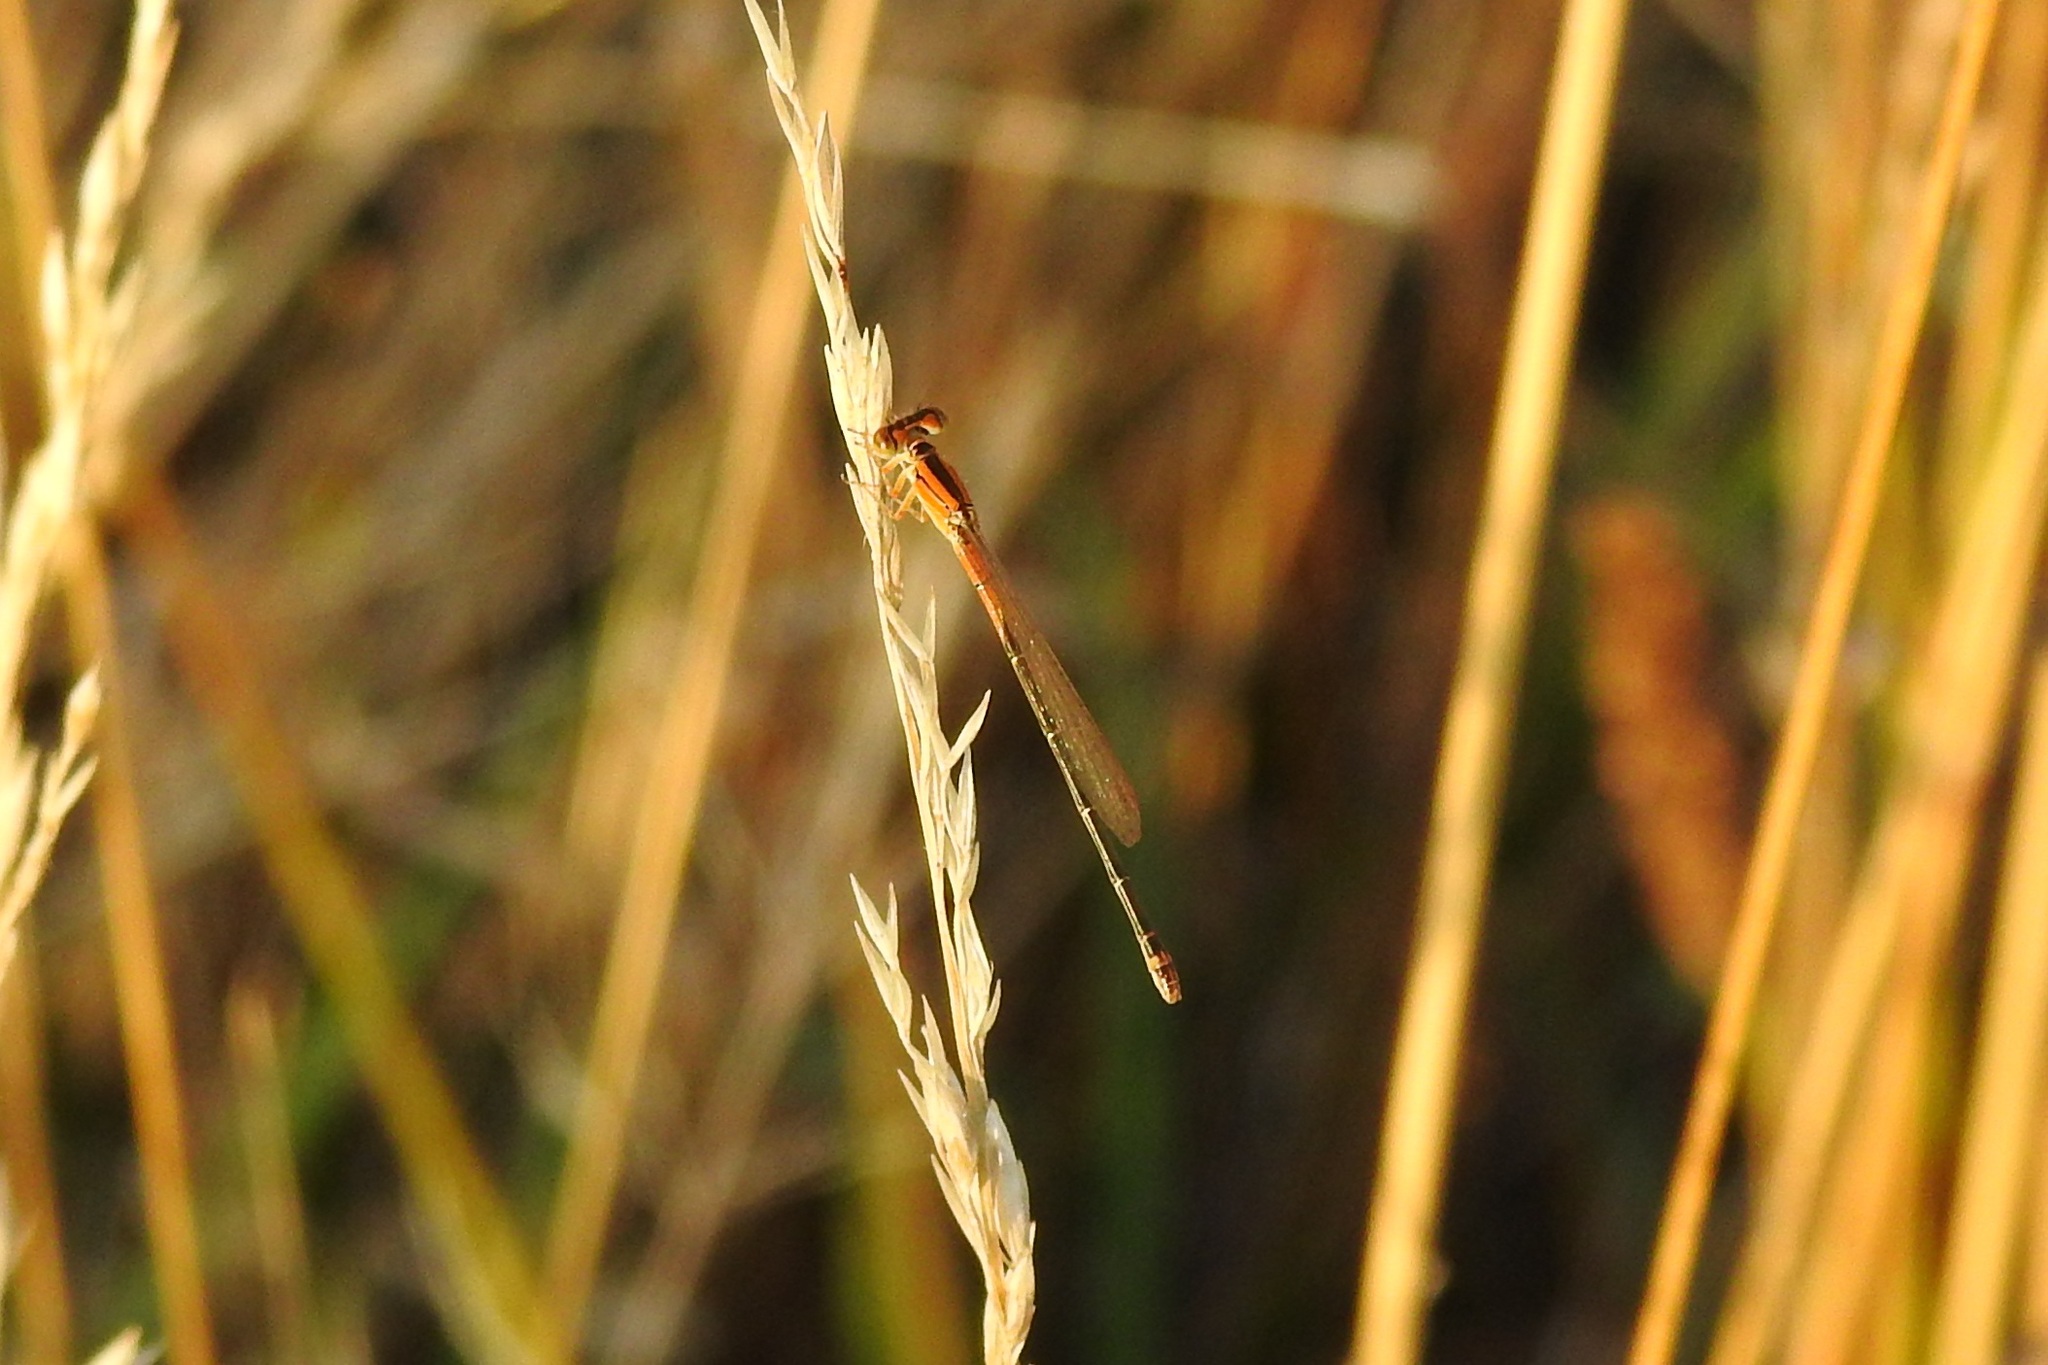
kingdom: Animalia
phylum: Arthropoda
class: Insecta
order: Odonata
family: Coenagrionidae
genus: Ischnura
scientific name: Ischnura verticalis
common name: Eastern forktail
